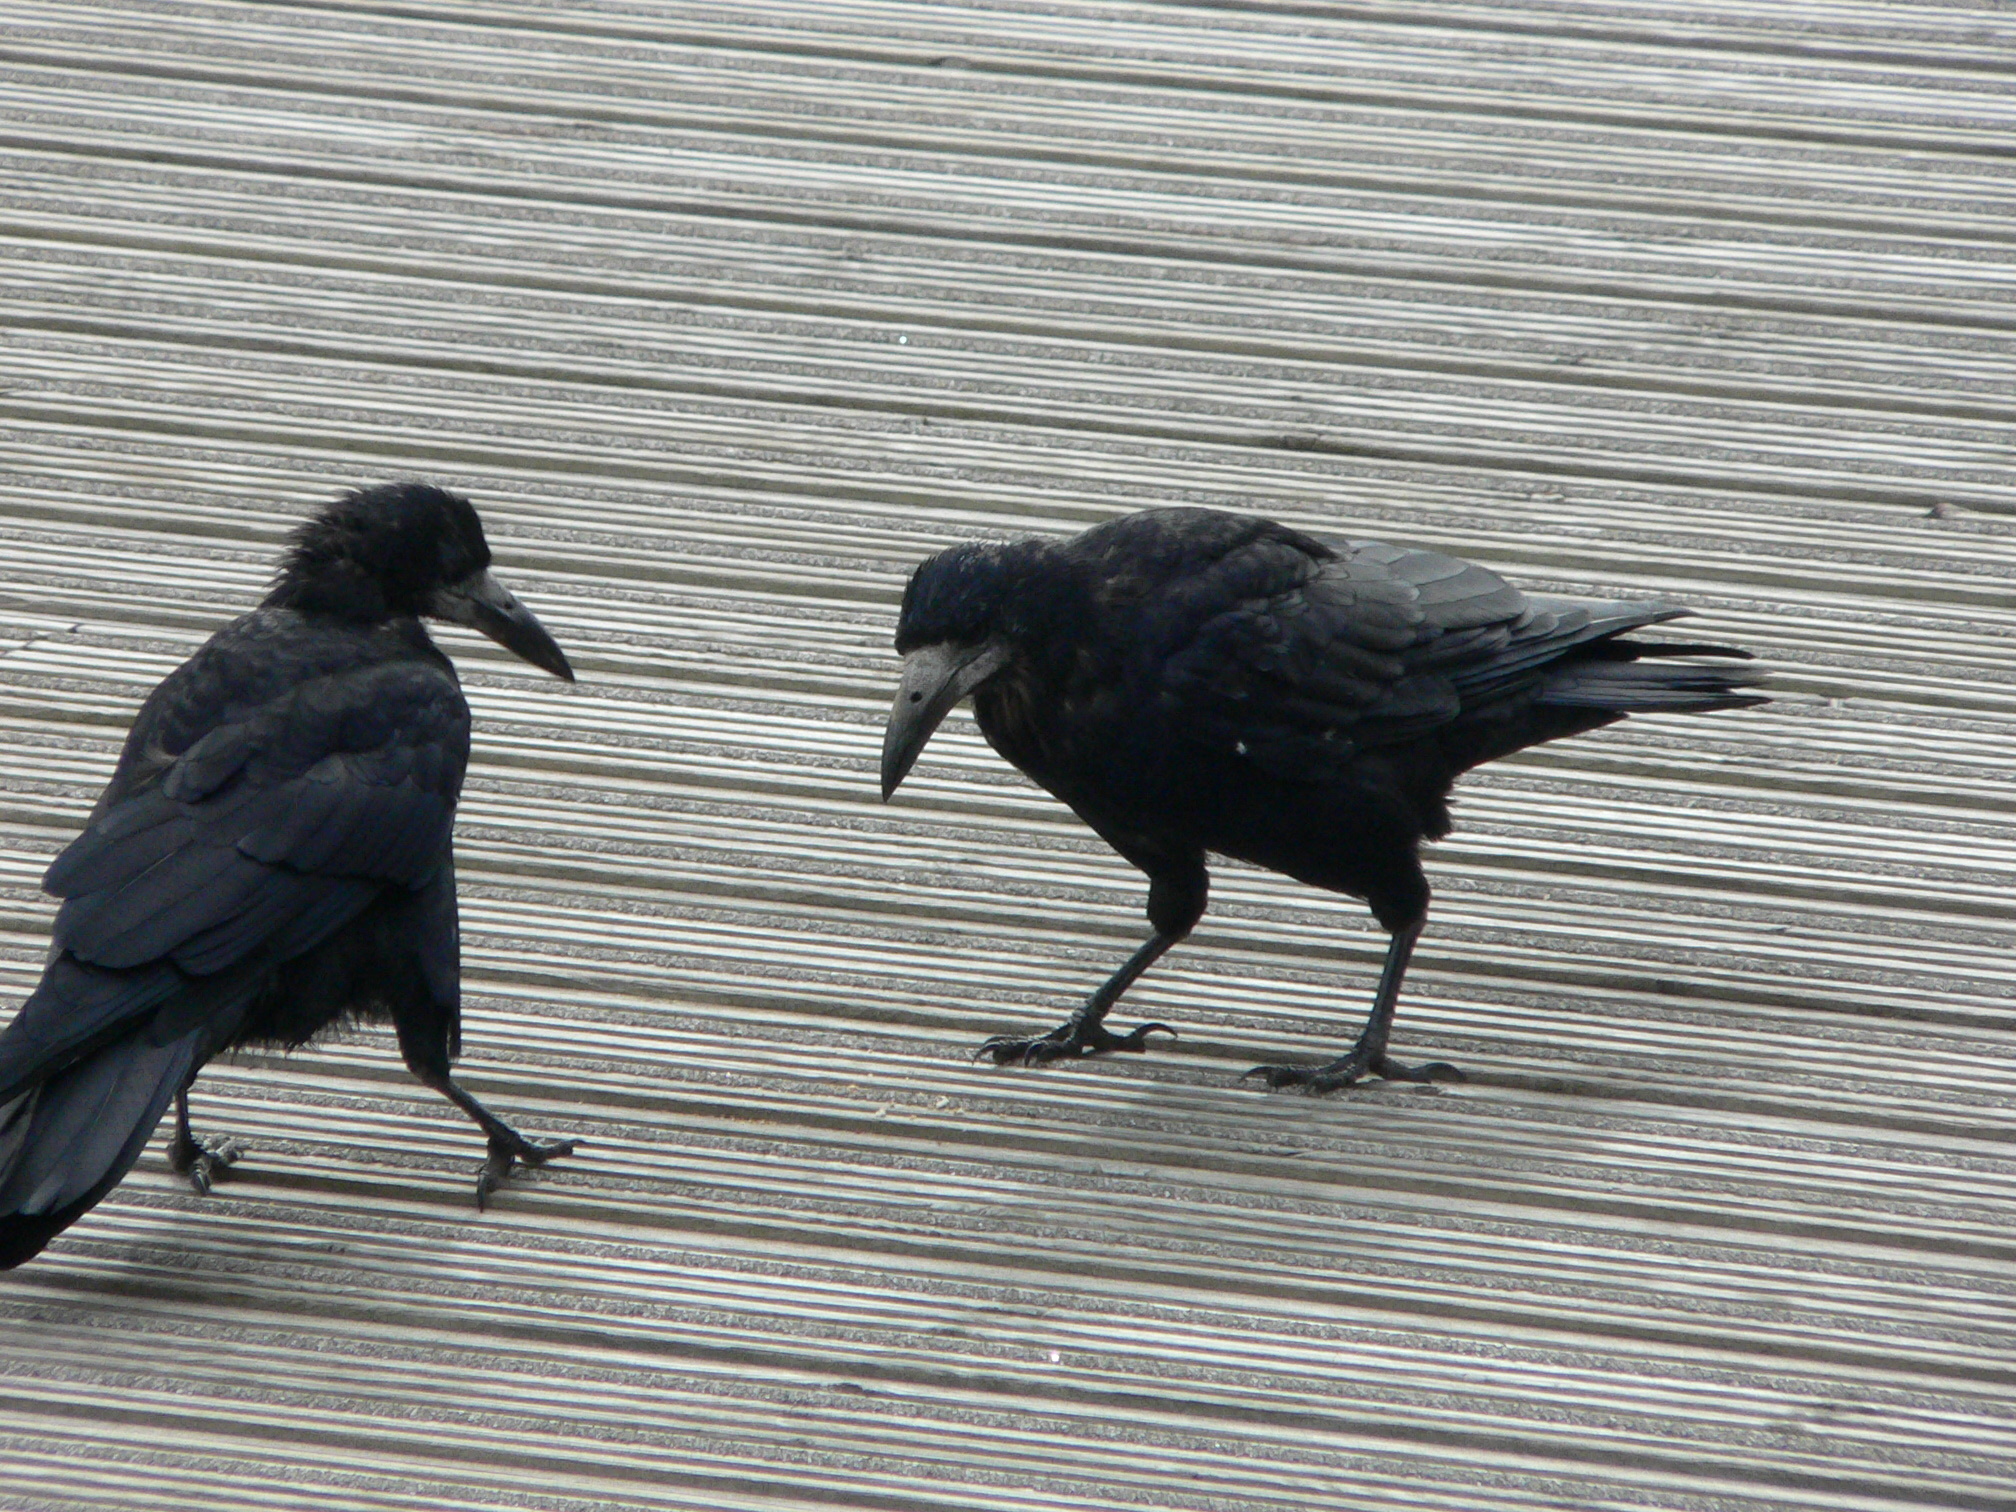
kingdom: Animalia
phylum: Chordata
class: Aves
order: Passeriformes
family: Corvidae
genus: Corvus
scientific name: Corvus frugilegus
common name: Rook
